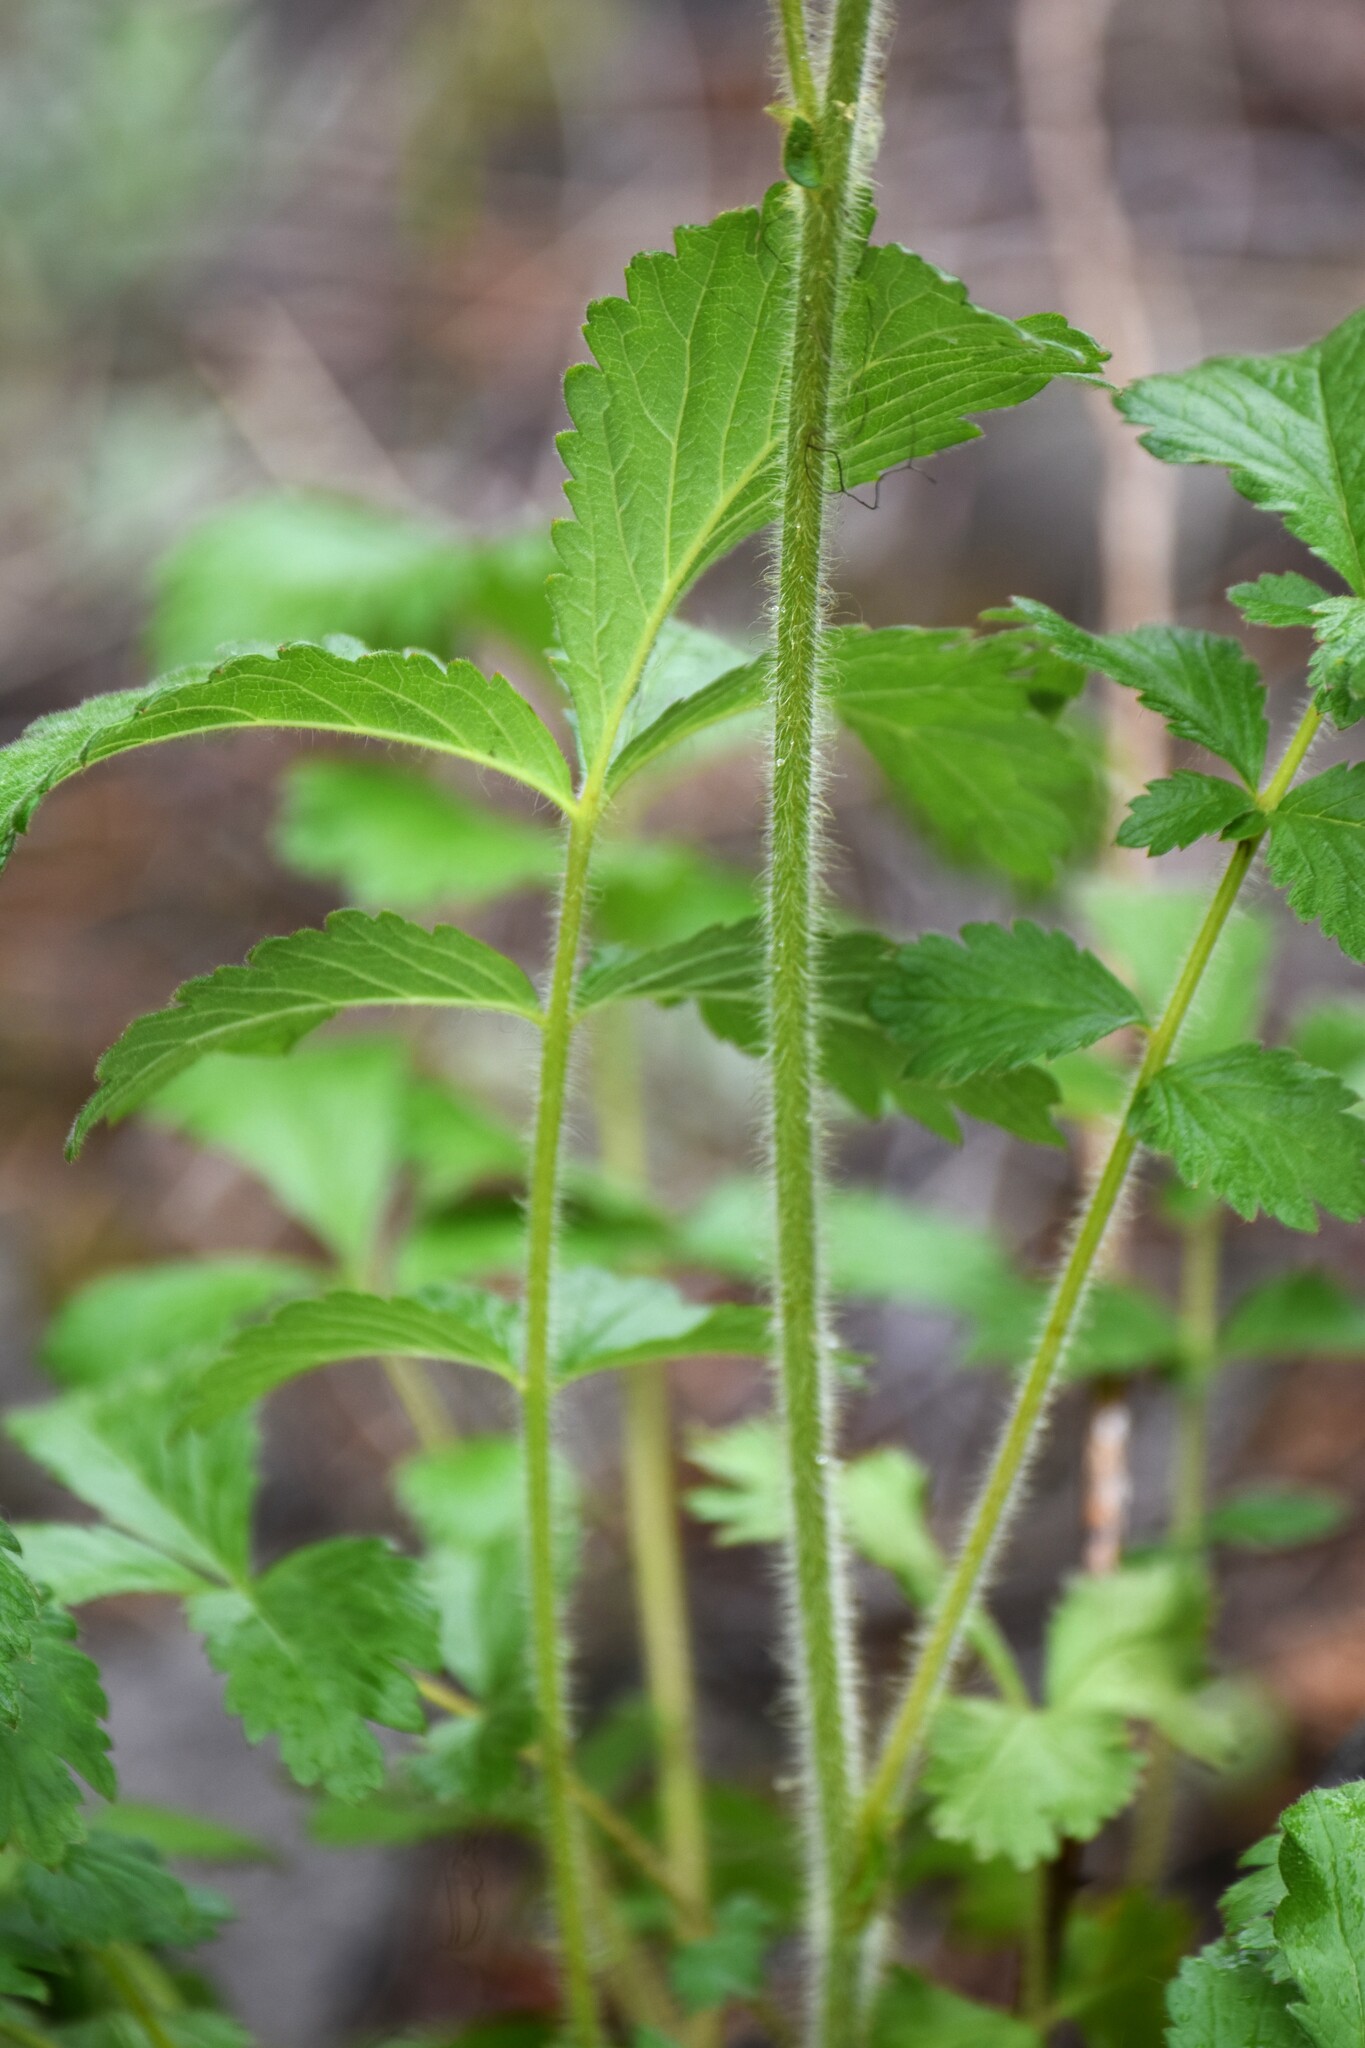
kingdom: Plantae
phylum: Tracheophyta
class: Magnoliopsida
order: Rosales
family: Rosaceae
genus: Drymocallis
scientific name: Drymocallis convallaria
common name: Cream cinquefoil
